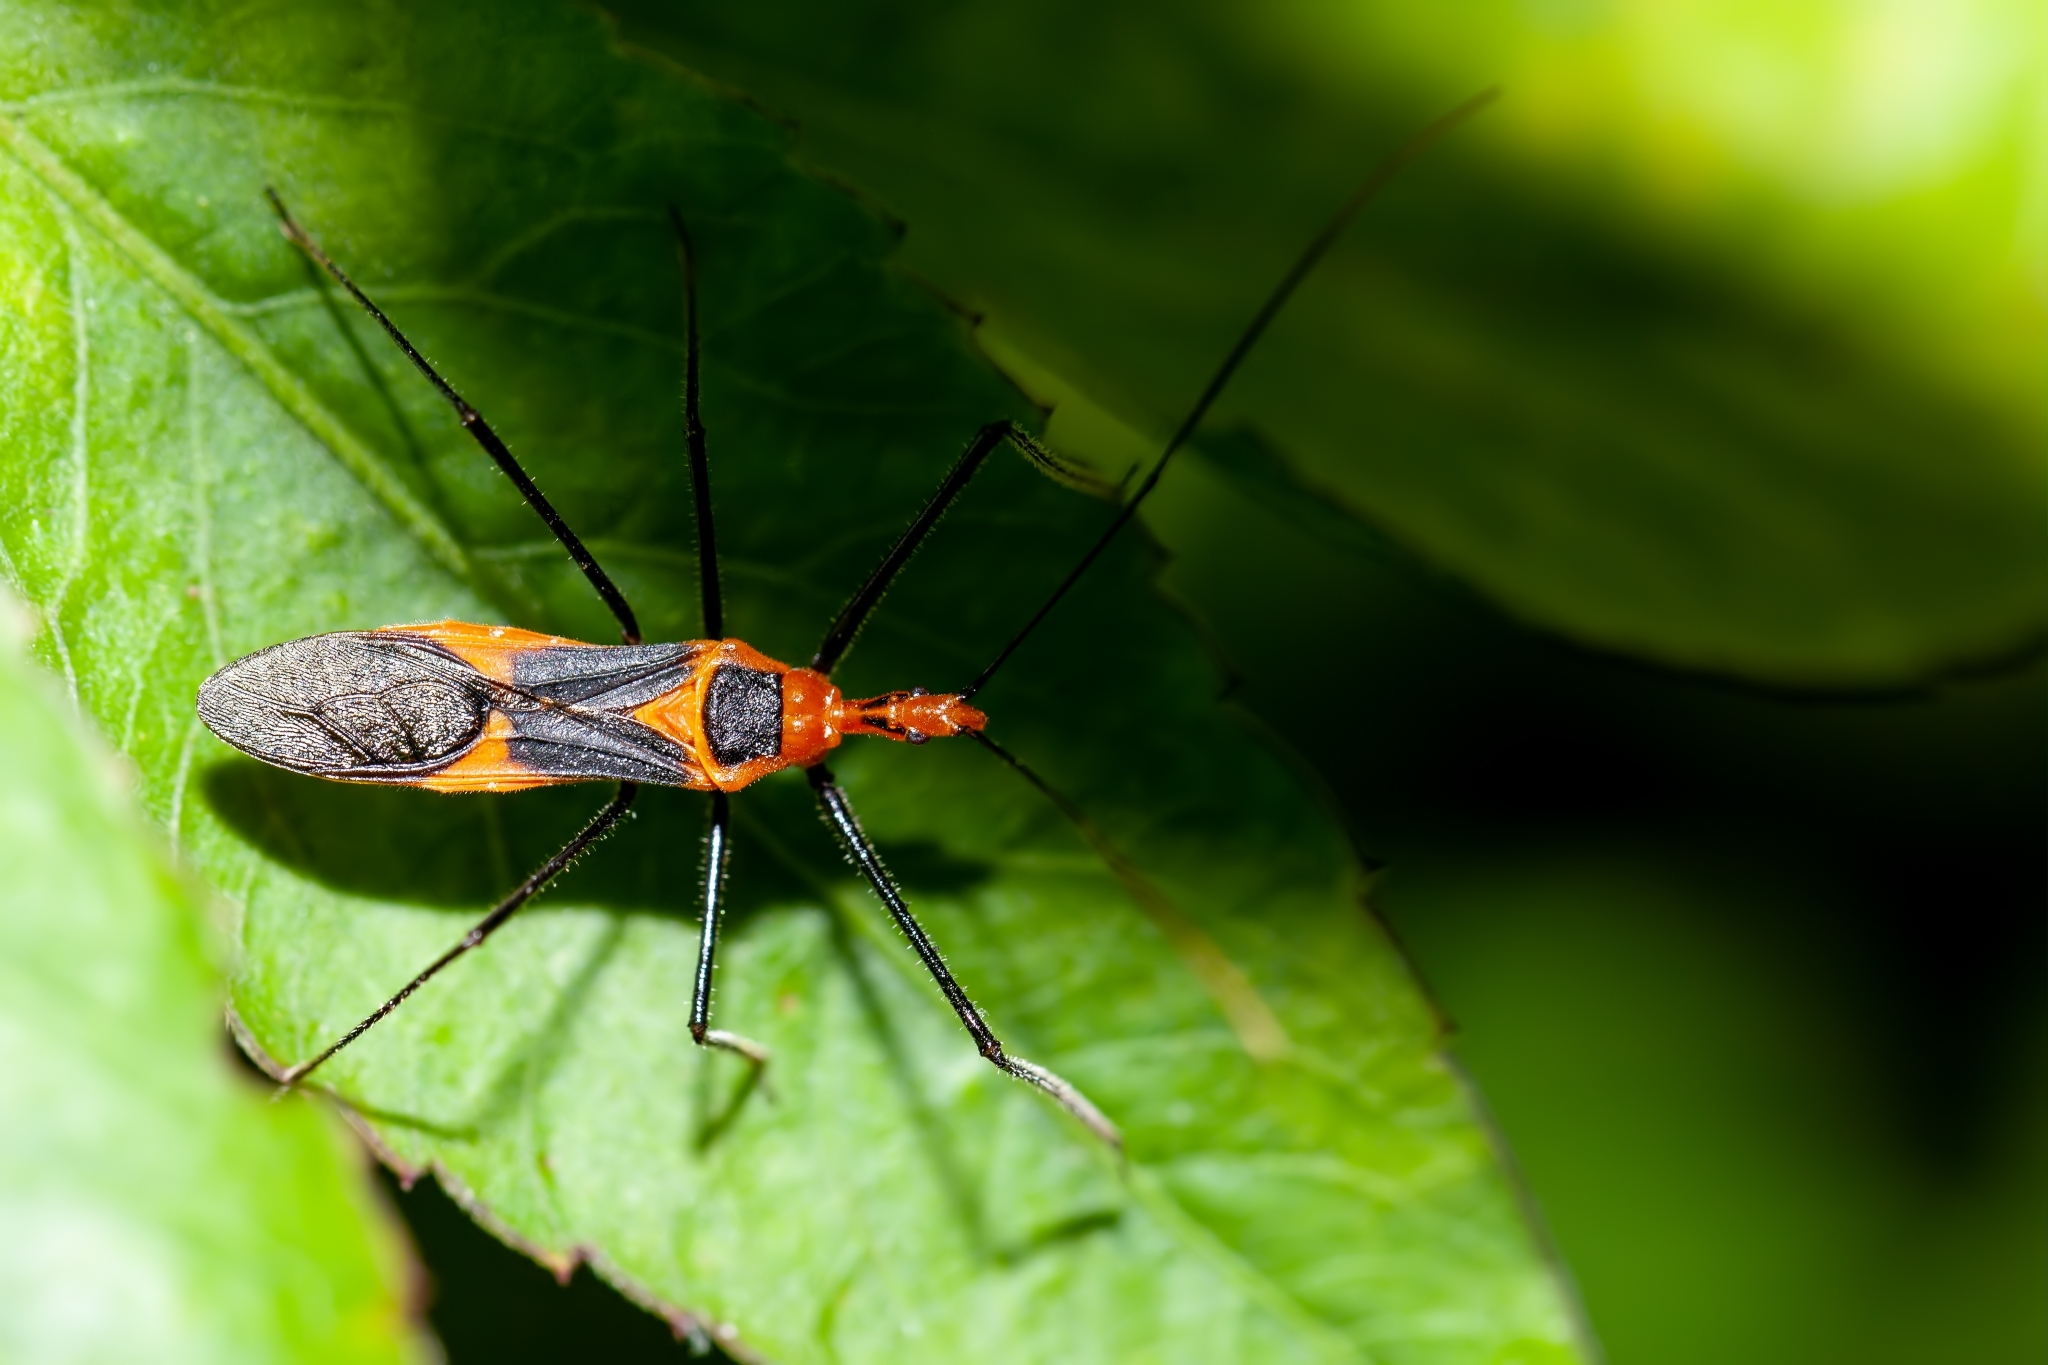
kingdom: Animalia
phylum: Arthropoda
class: Insecta
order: Hemiptera
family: Reduviidae
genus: Zelus
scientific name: Zelus longipes
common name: Milkweed assassin bug
